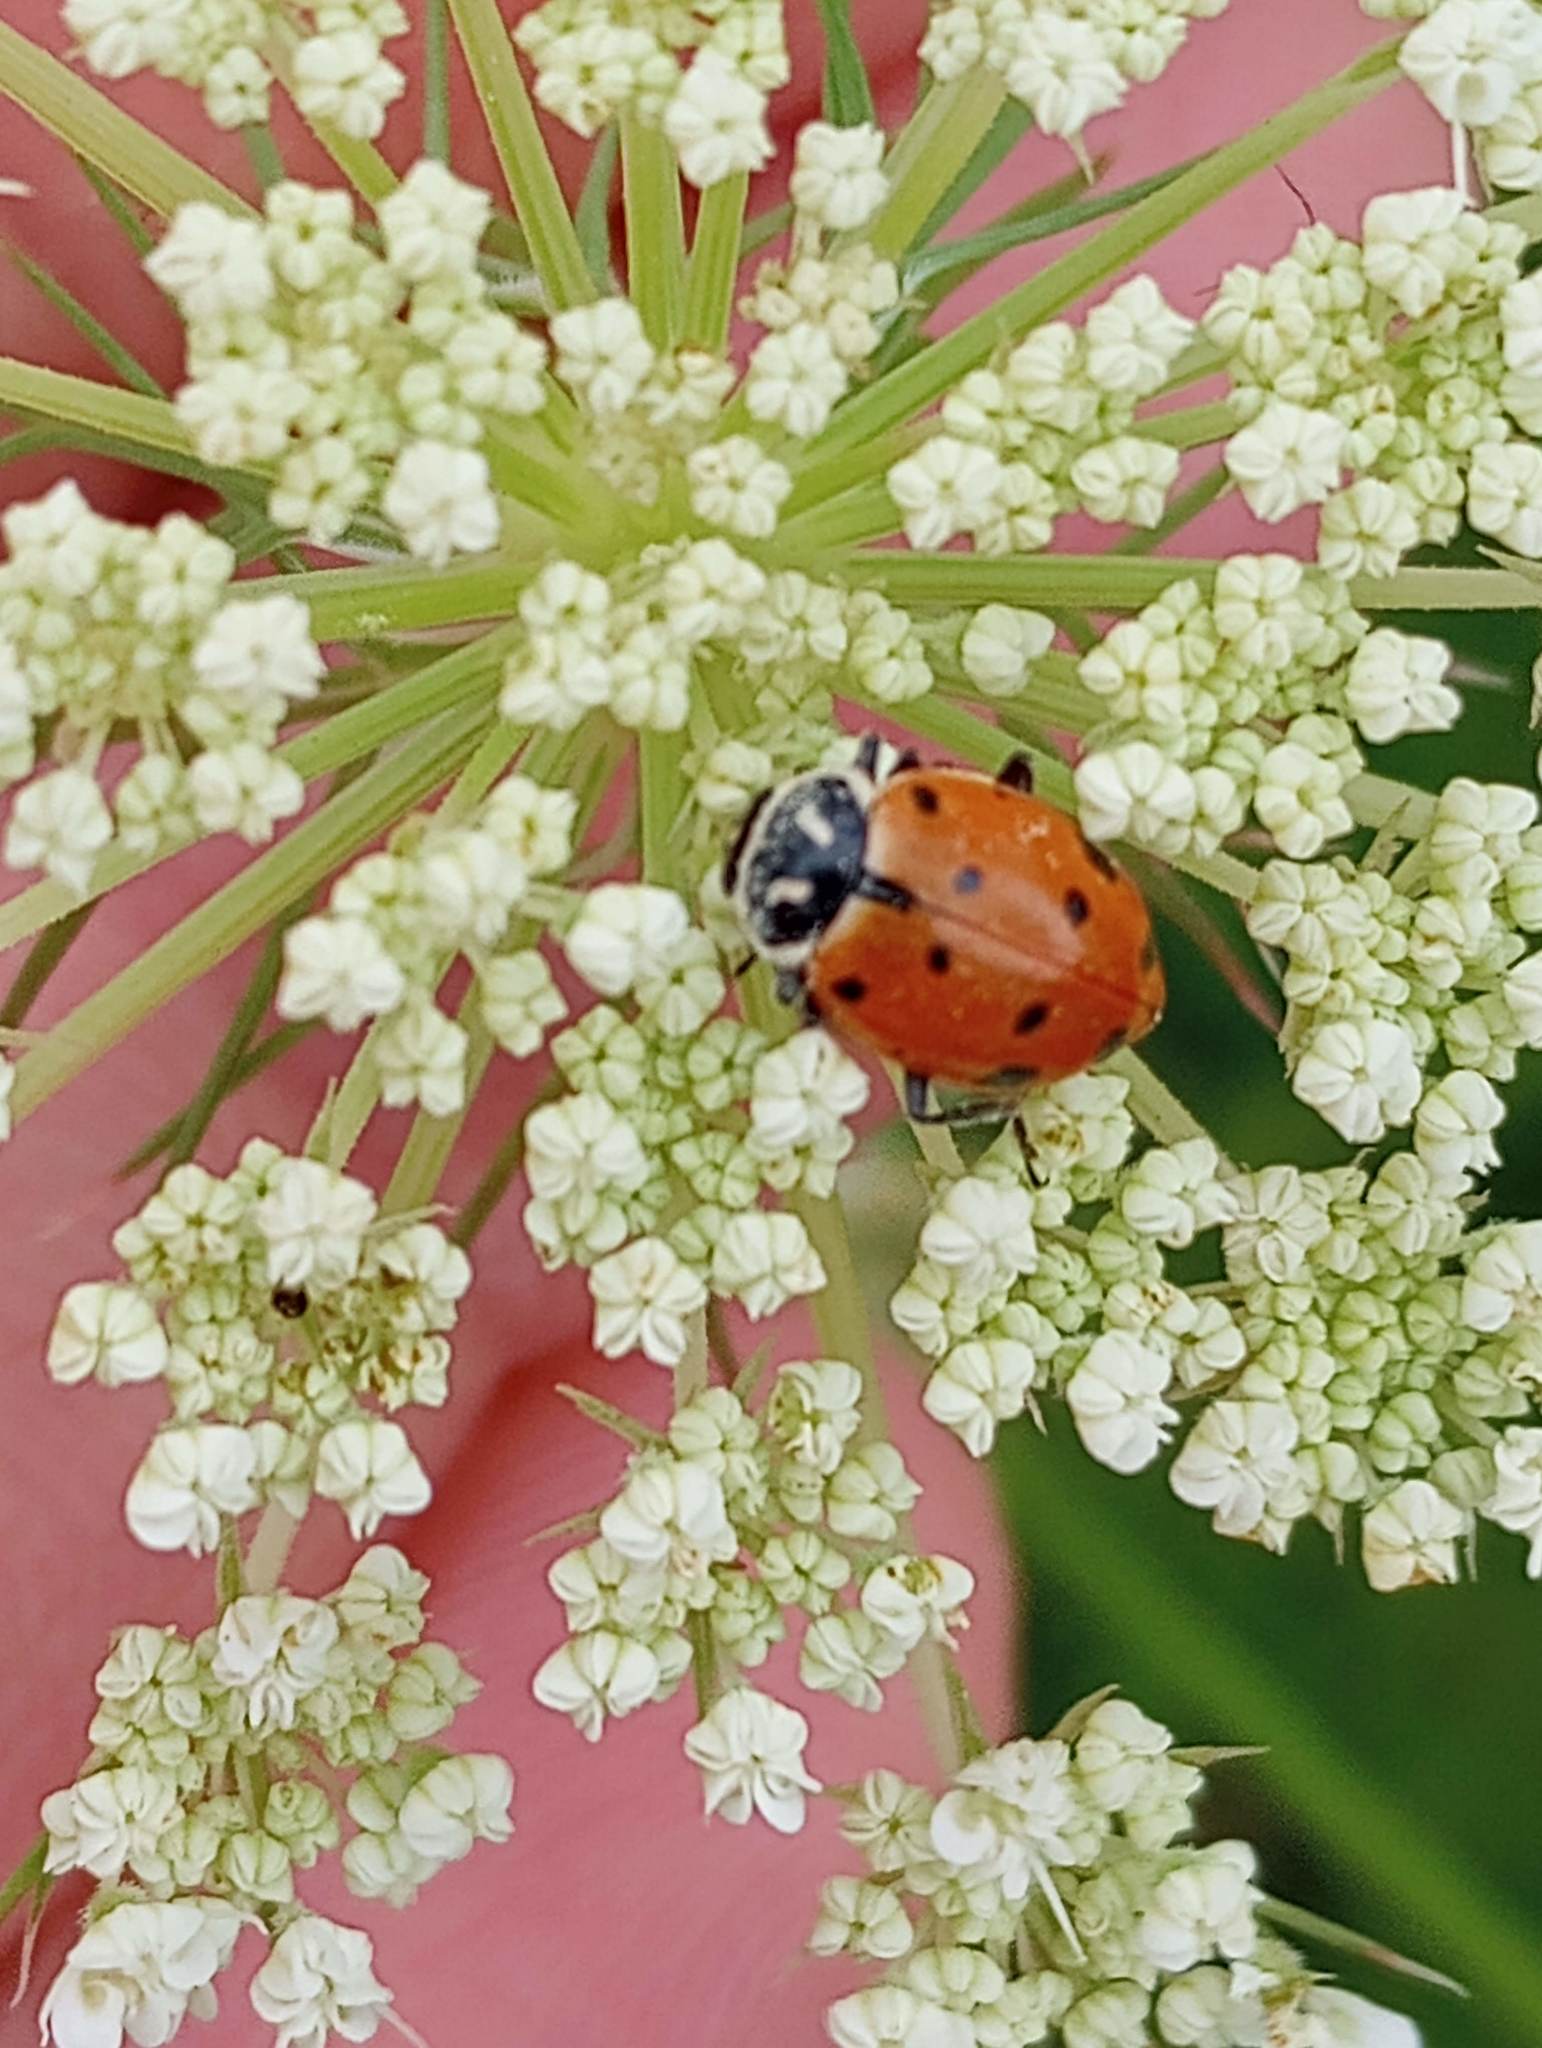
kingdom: Animalia
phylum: Arthropoda
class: Insecta
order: Coleoptera
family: Coccinellidae
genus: Hippodamia
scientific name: Hippodamia convergens
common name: Convergent lady beetle
